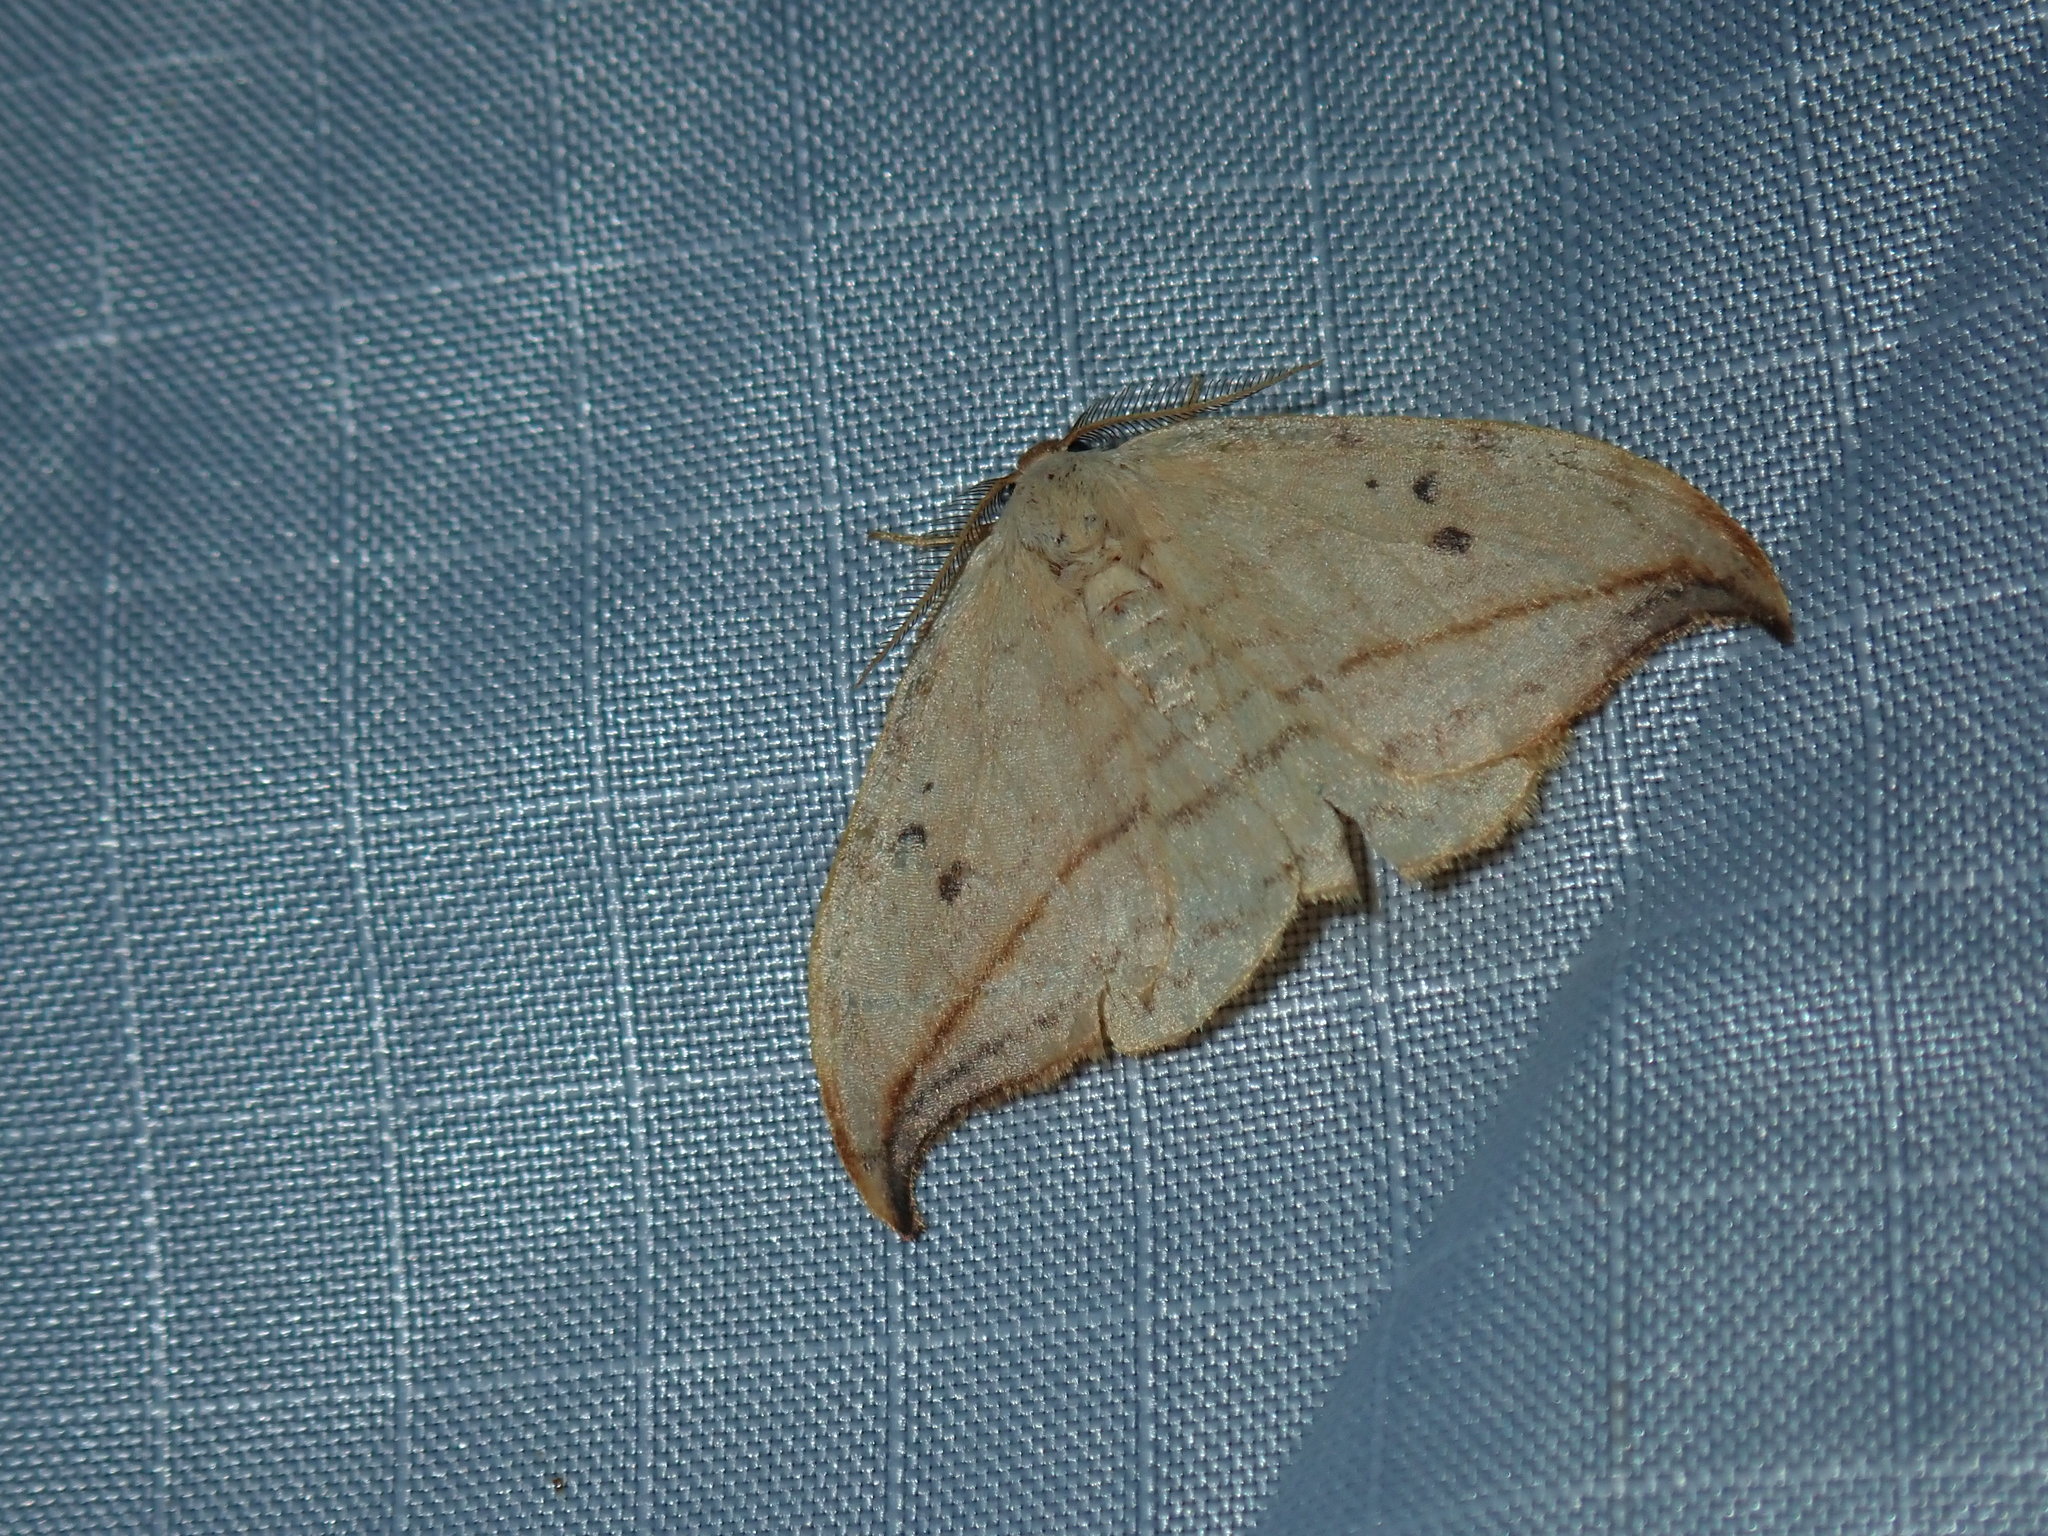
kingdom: Animalia
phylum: Arthropoda
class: Insecta
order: Lepidoptera
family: Drepanidae
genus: Drepana
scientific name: Drepana arcuata
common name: Arched hooktip moth
